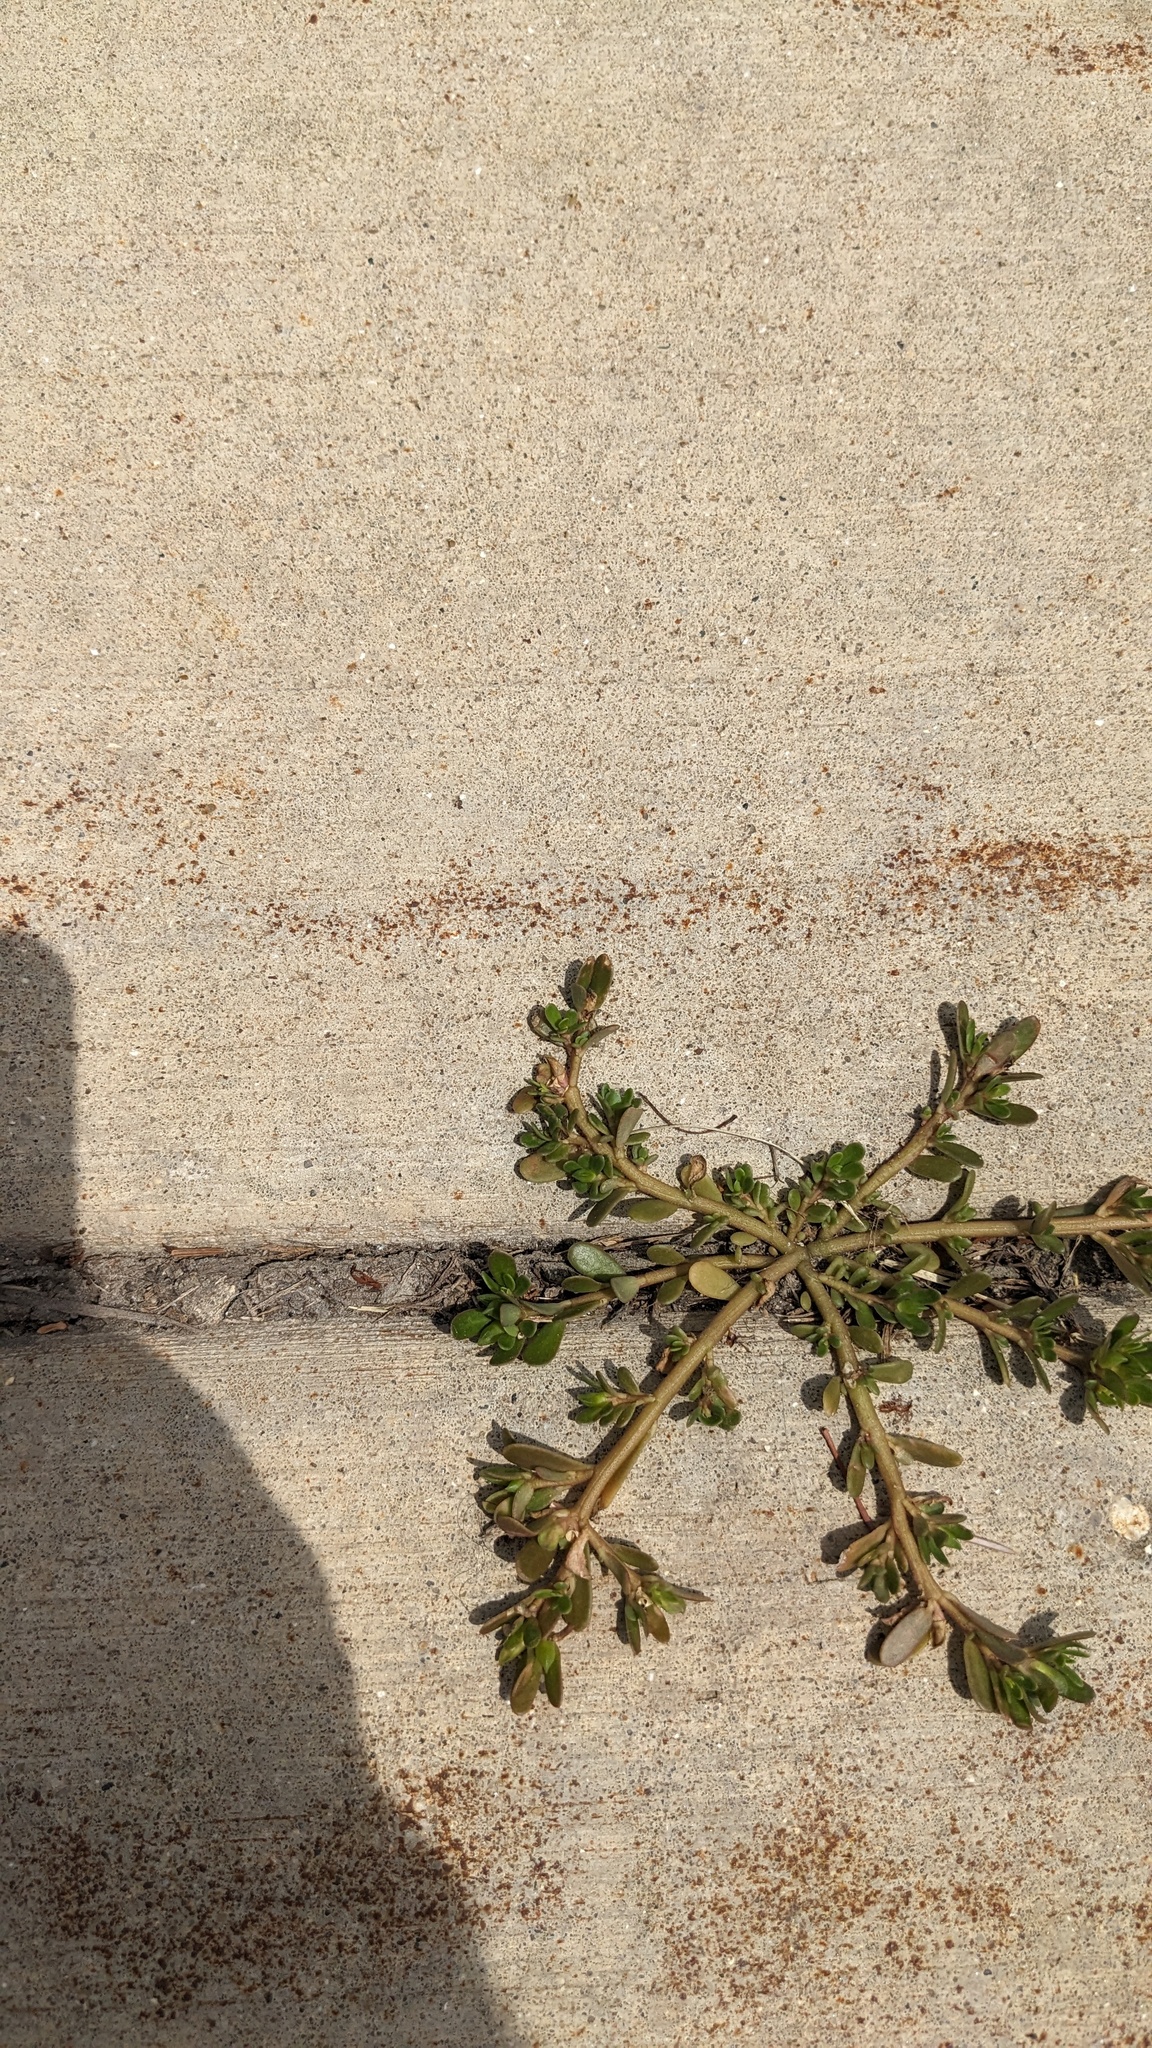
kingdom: Plantae
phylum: Tracheophyta
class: Magnoliopsida
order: Caryophyllales
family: Portulacaceae
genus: Portulaca
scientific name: Portulaca oleracea
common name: Common purslane
